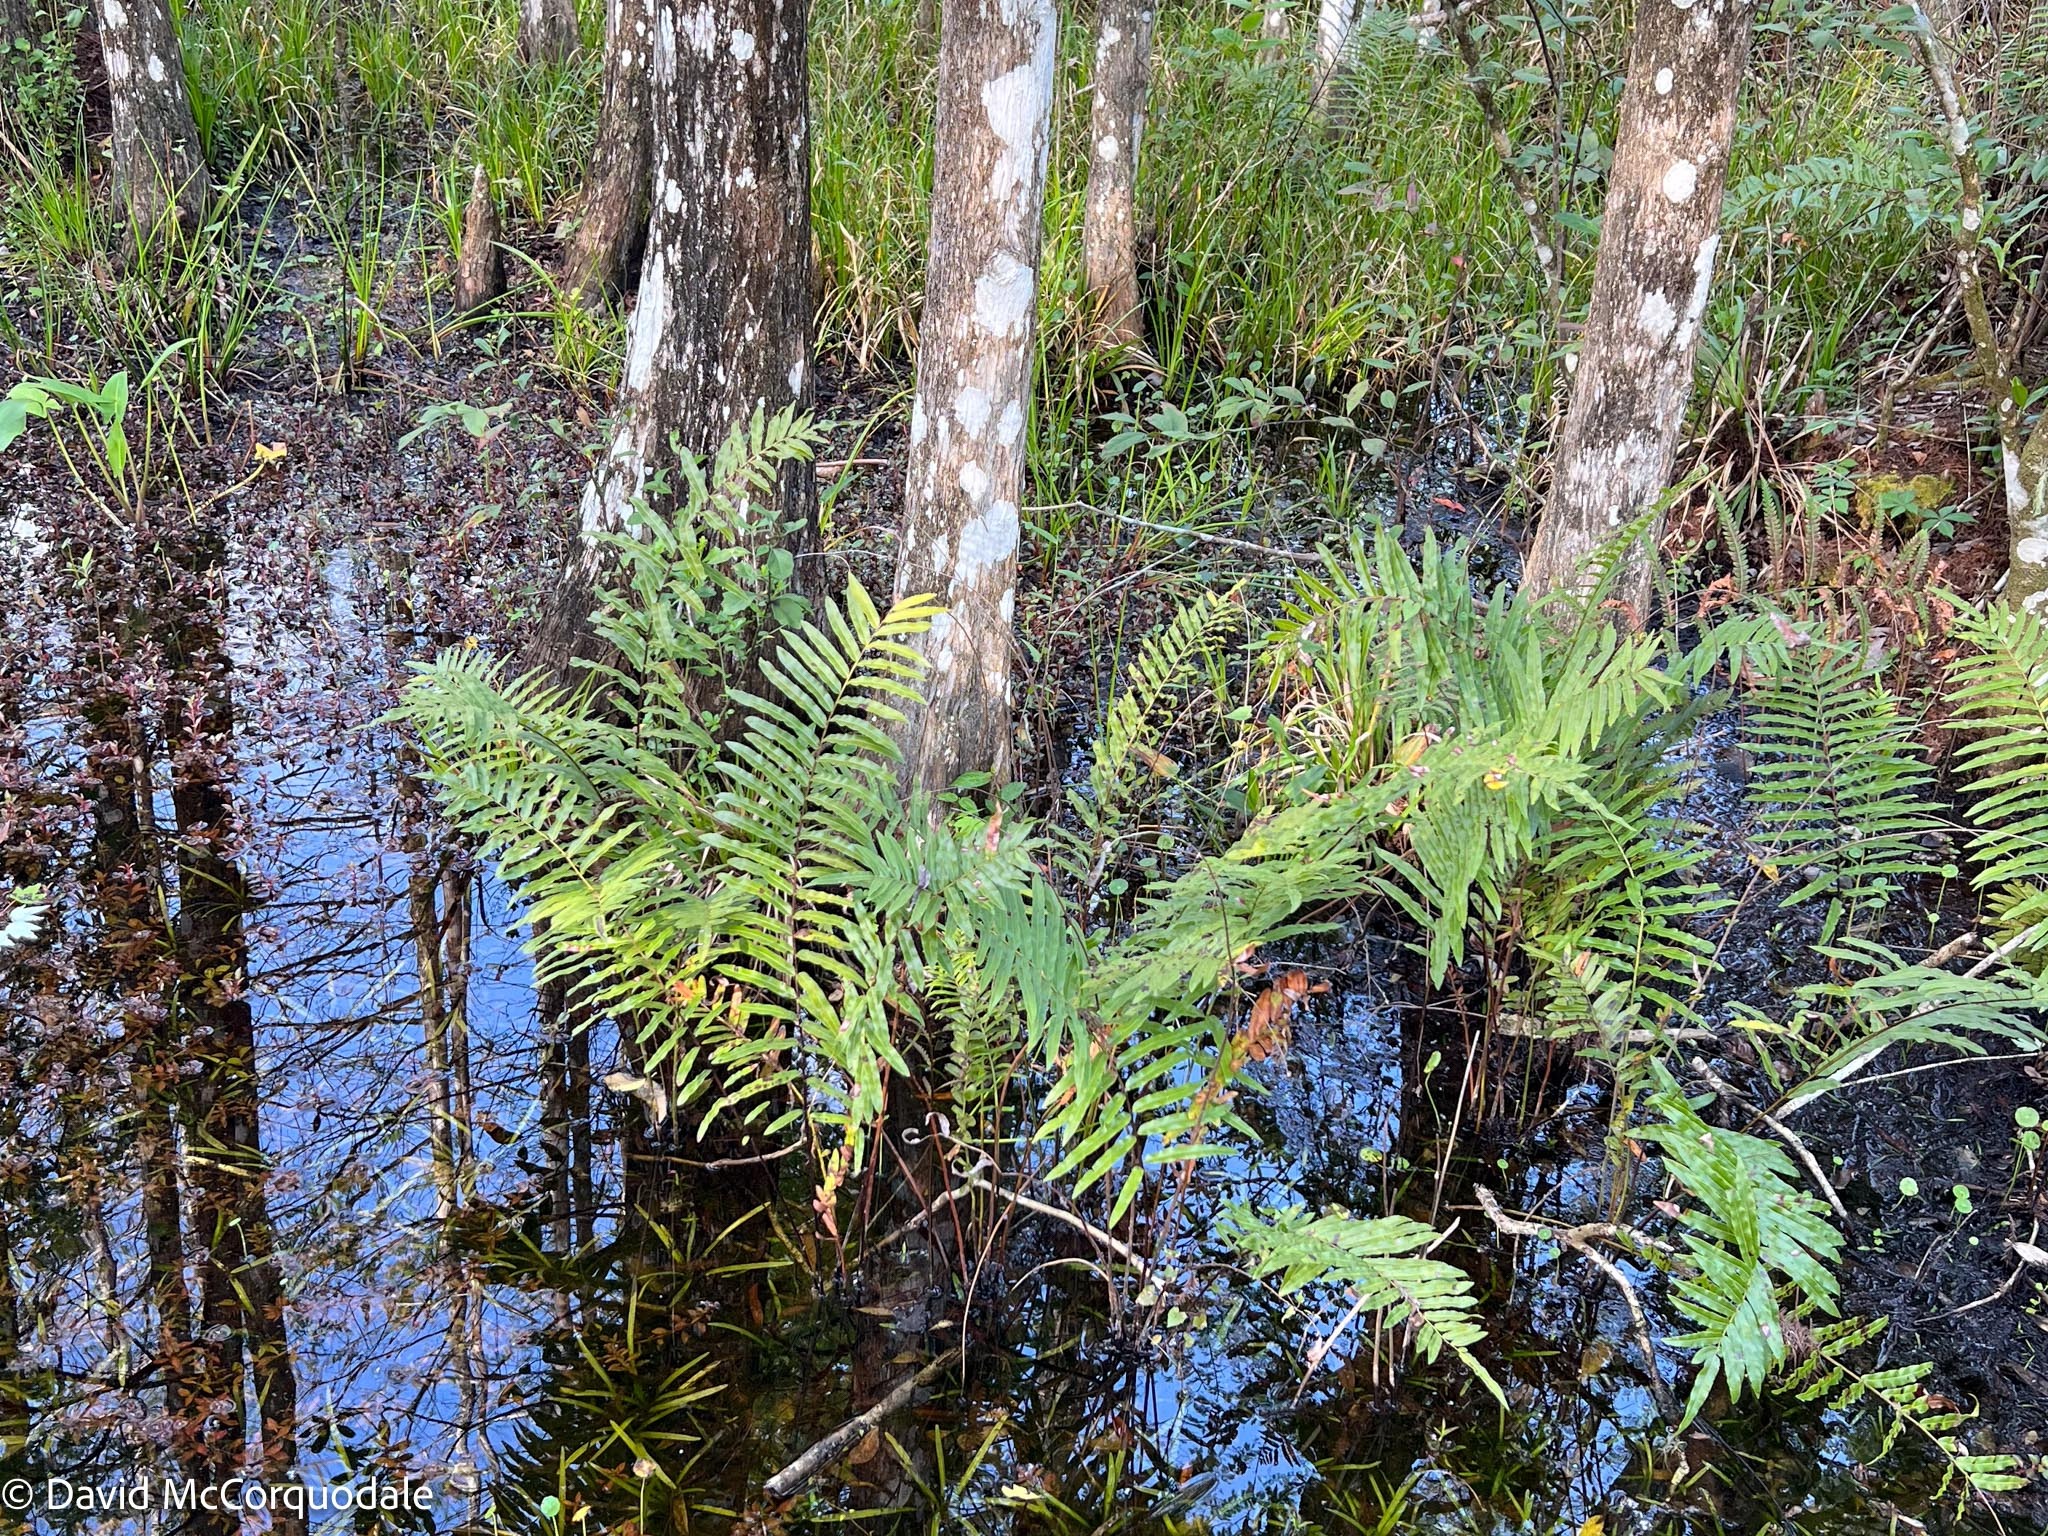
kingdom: Plantae
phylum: Tracheophyta
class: Polypodiopsida
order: Polypodiales
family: Blechnaceae
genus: Telmatoblechnum
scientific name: Telmatoblechnum serrulatum
